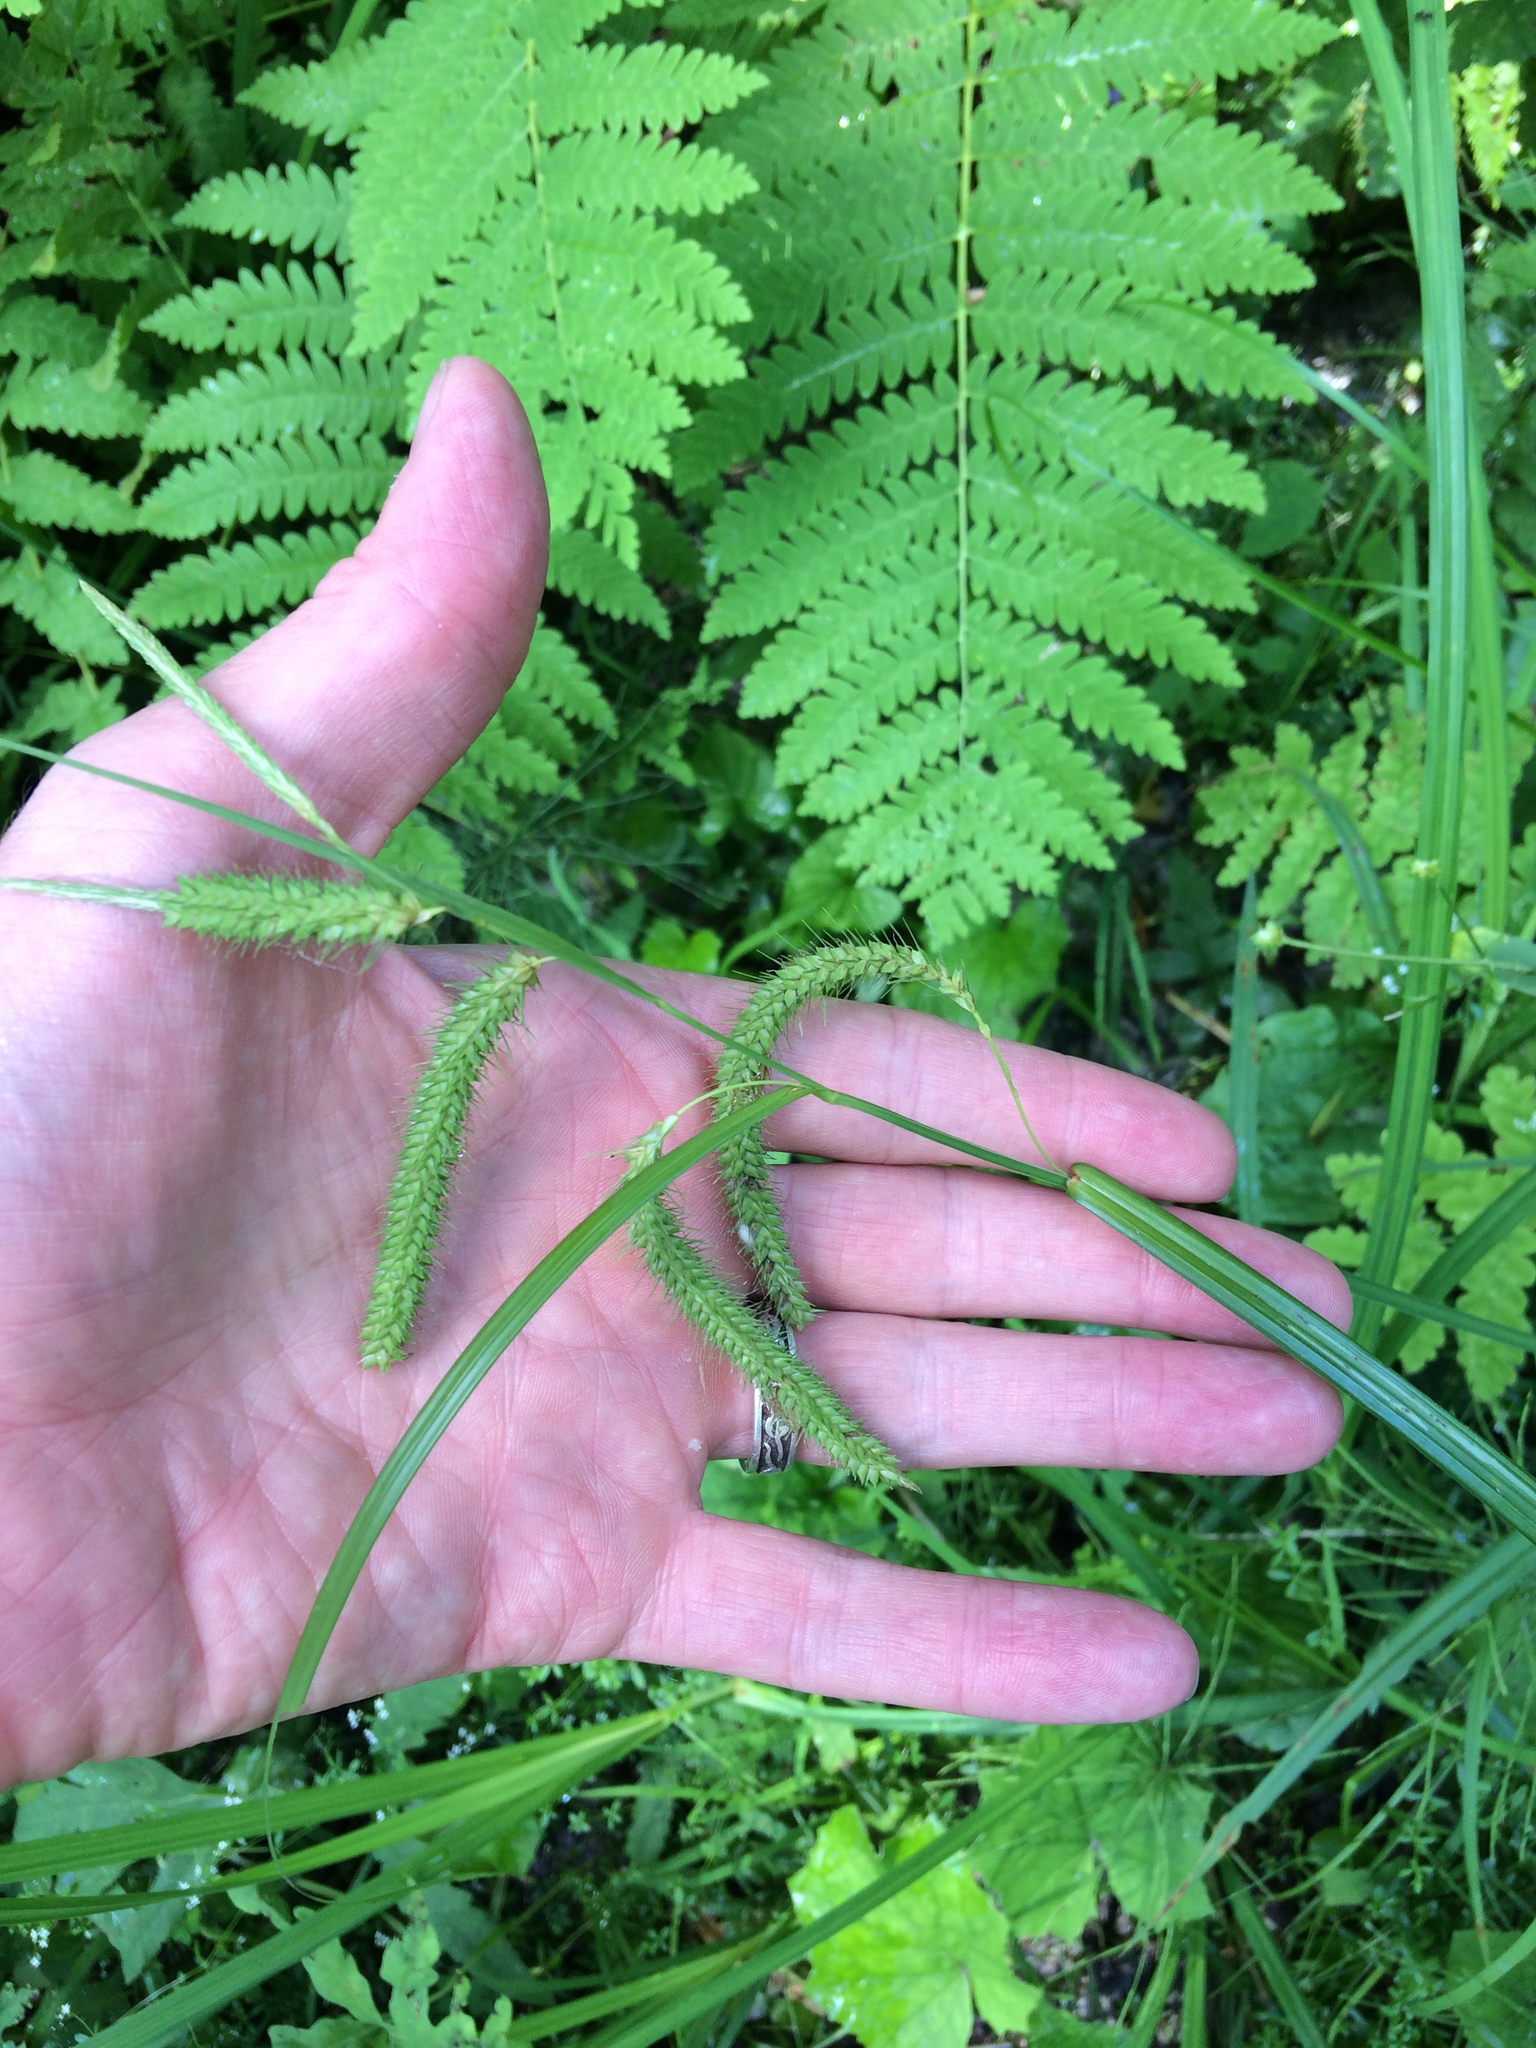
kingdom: Plantae
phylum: Tracheophyta
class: Liliopsida
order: Poales
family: Cyperaceae
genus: Carex
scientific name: Carex gynandra
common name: Nodding sedge
